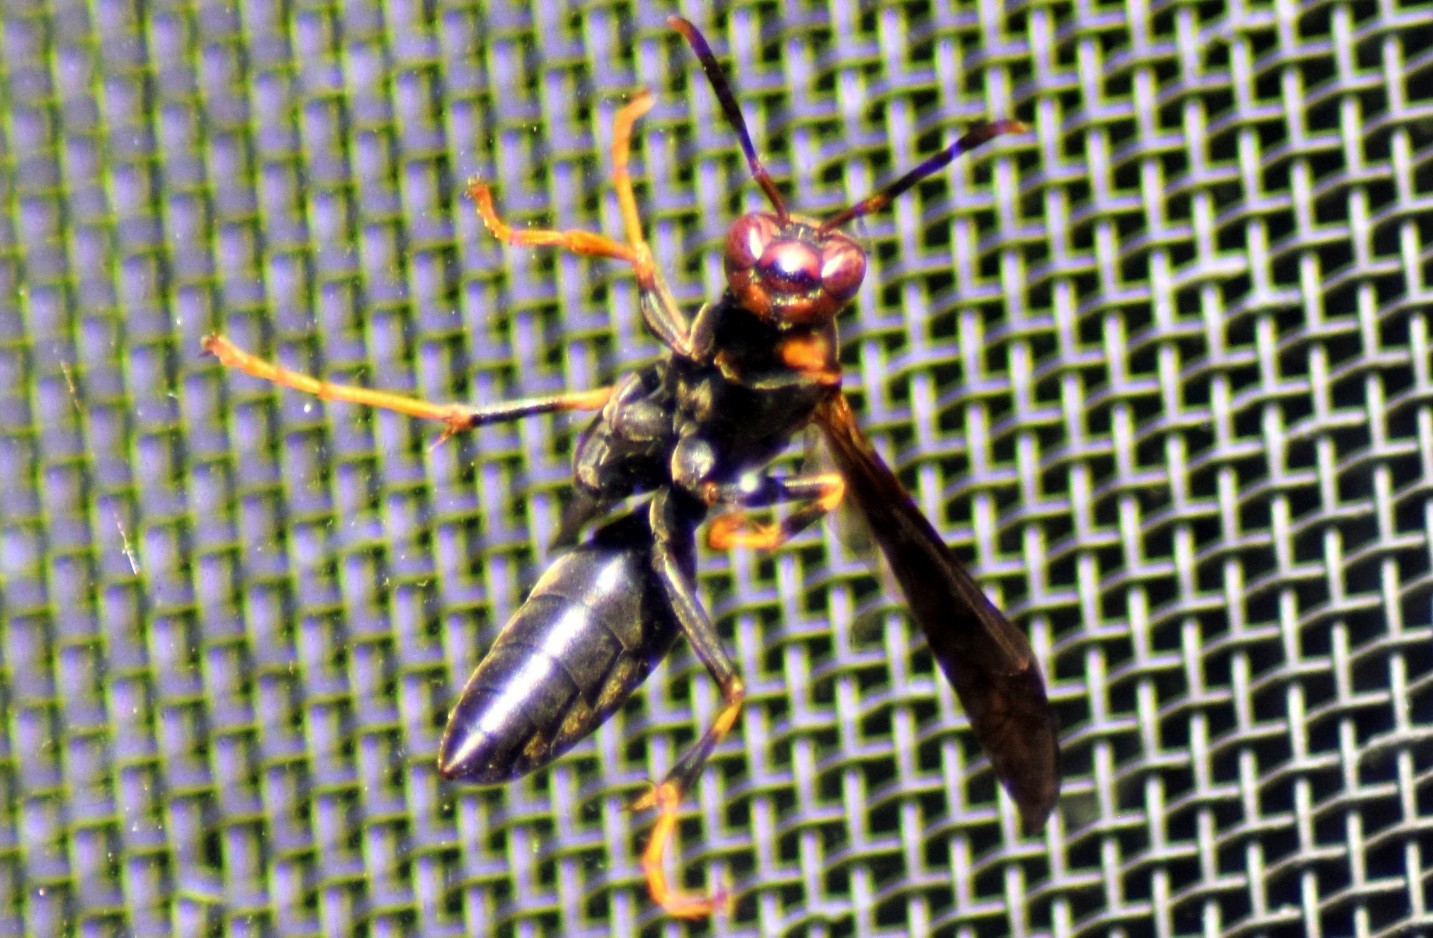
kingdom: Animalia
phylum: Arthropoda
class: Insecta
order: Hymenoptera
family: Eumenidae
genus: Polistes
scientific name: Polistes metricus
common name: Metric paper wasp
